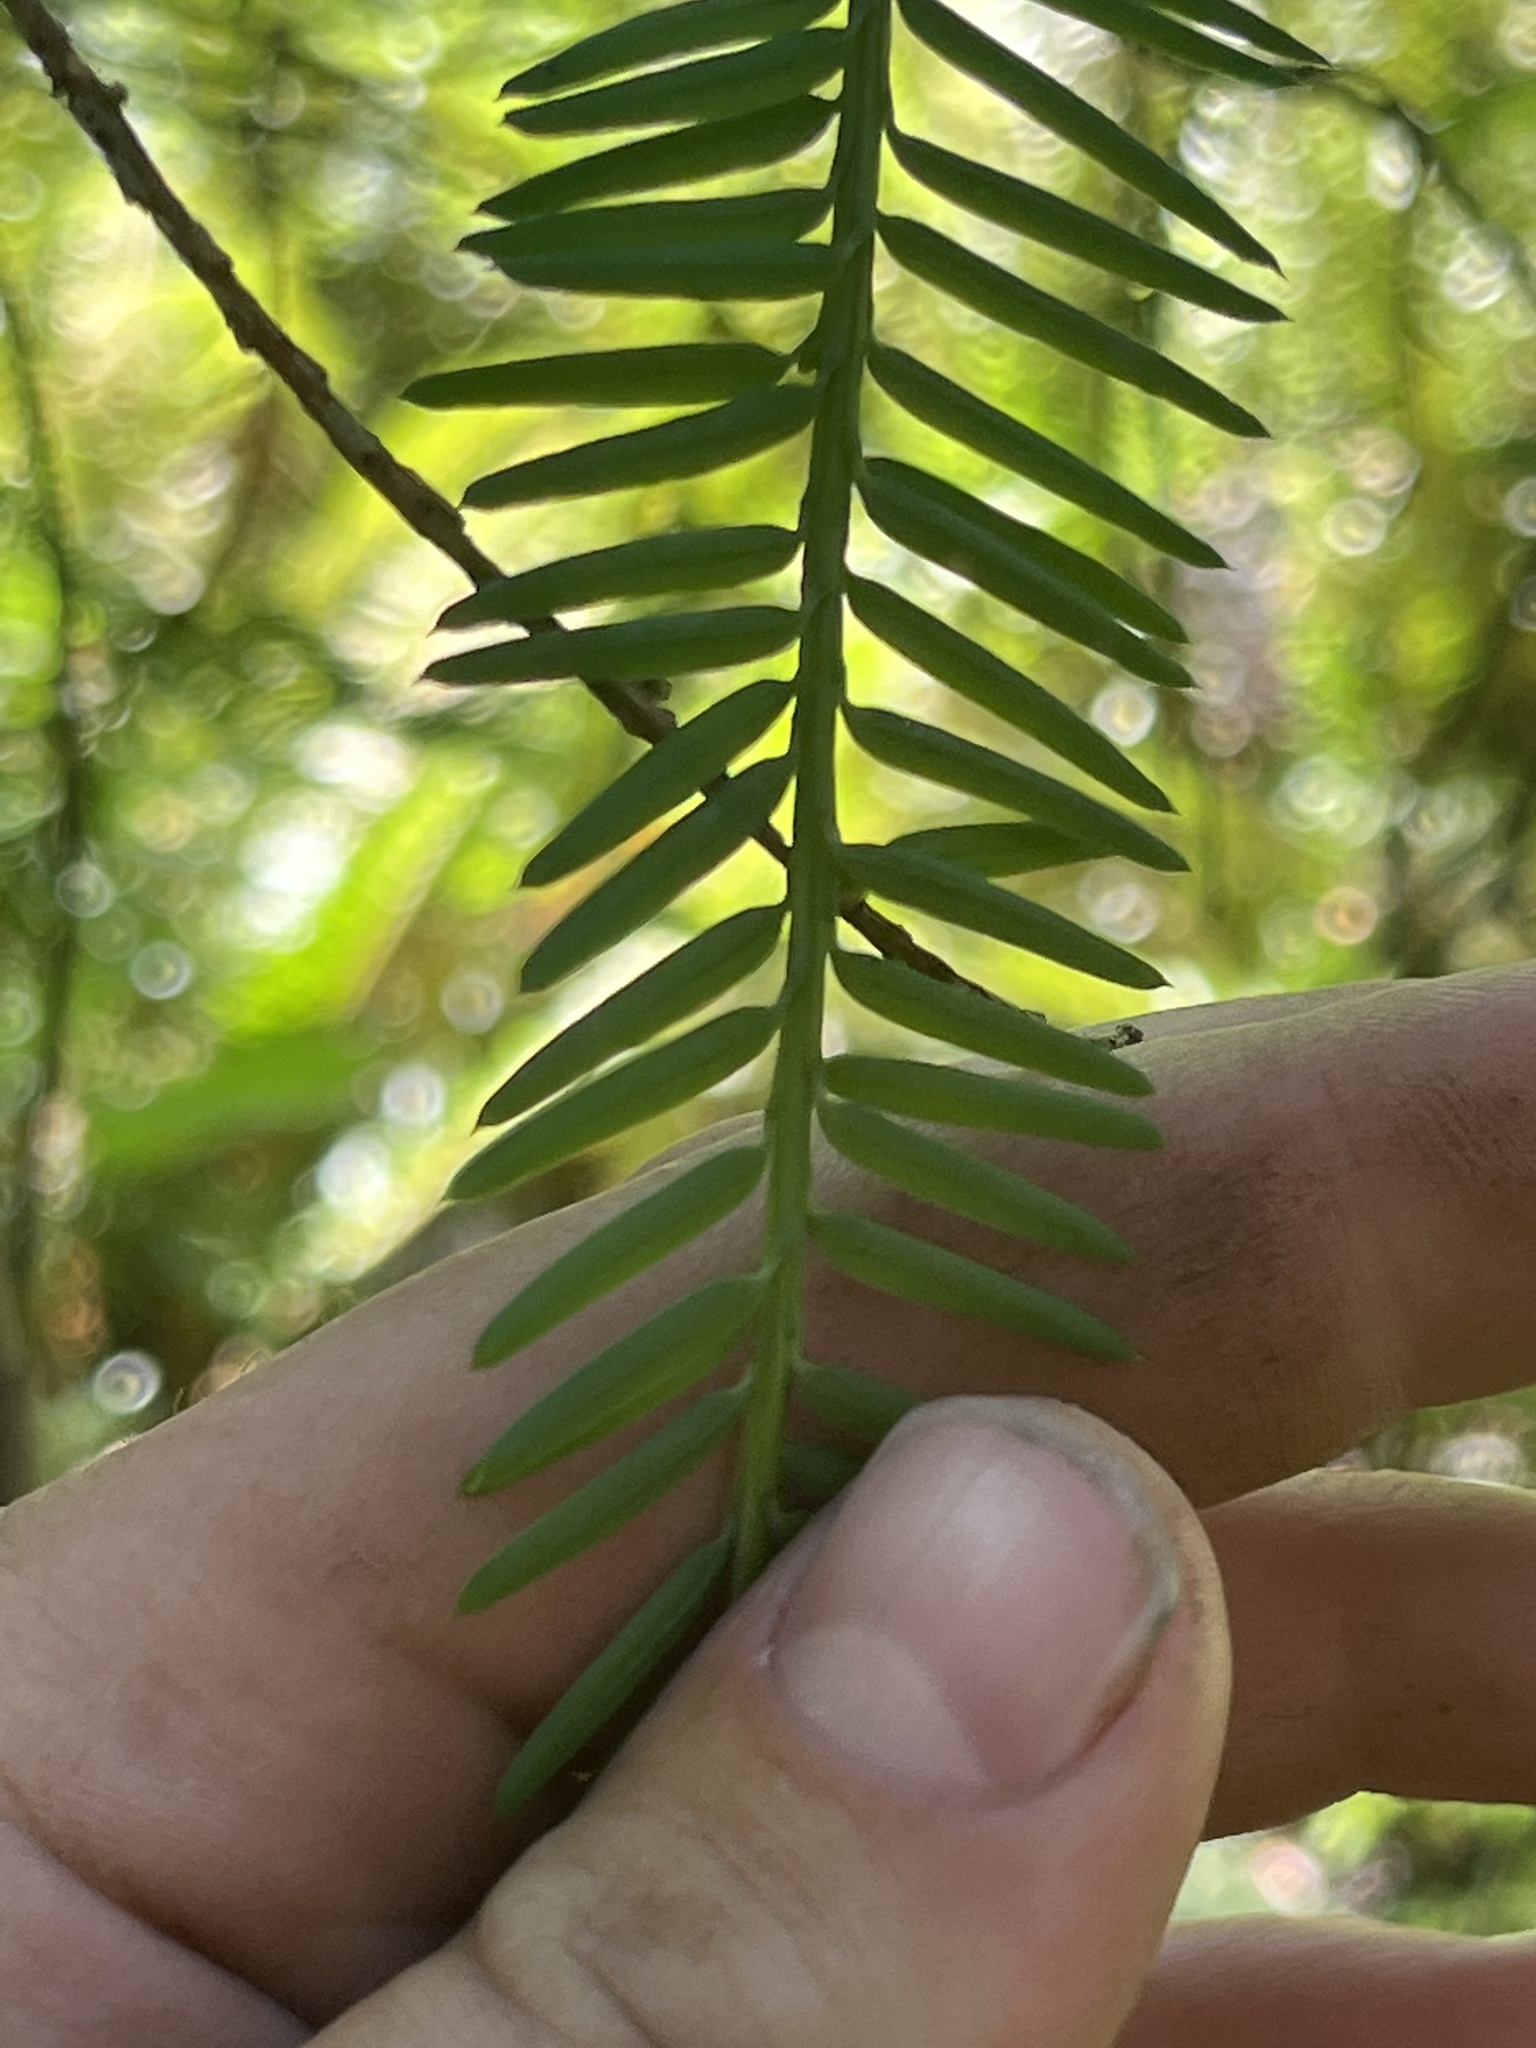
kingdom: Plantae
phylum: Tracheophyta
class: Pinopsida
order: Pinales
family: Taxaceae
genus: Taxus
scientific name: Taxus brevifolia
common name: Pacific yew
